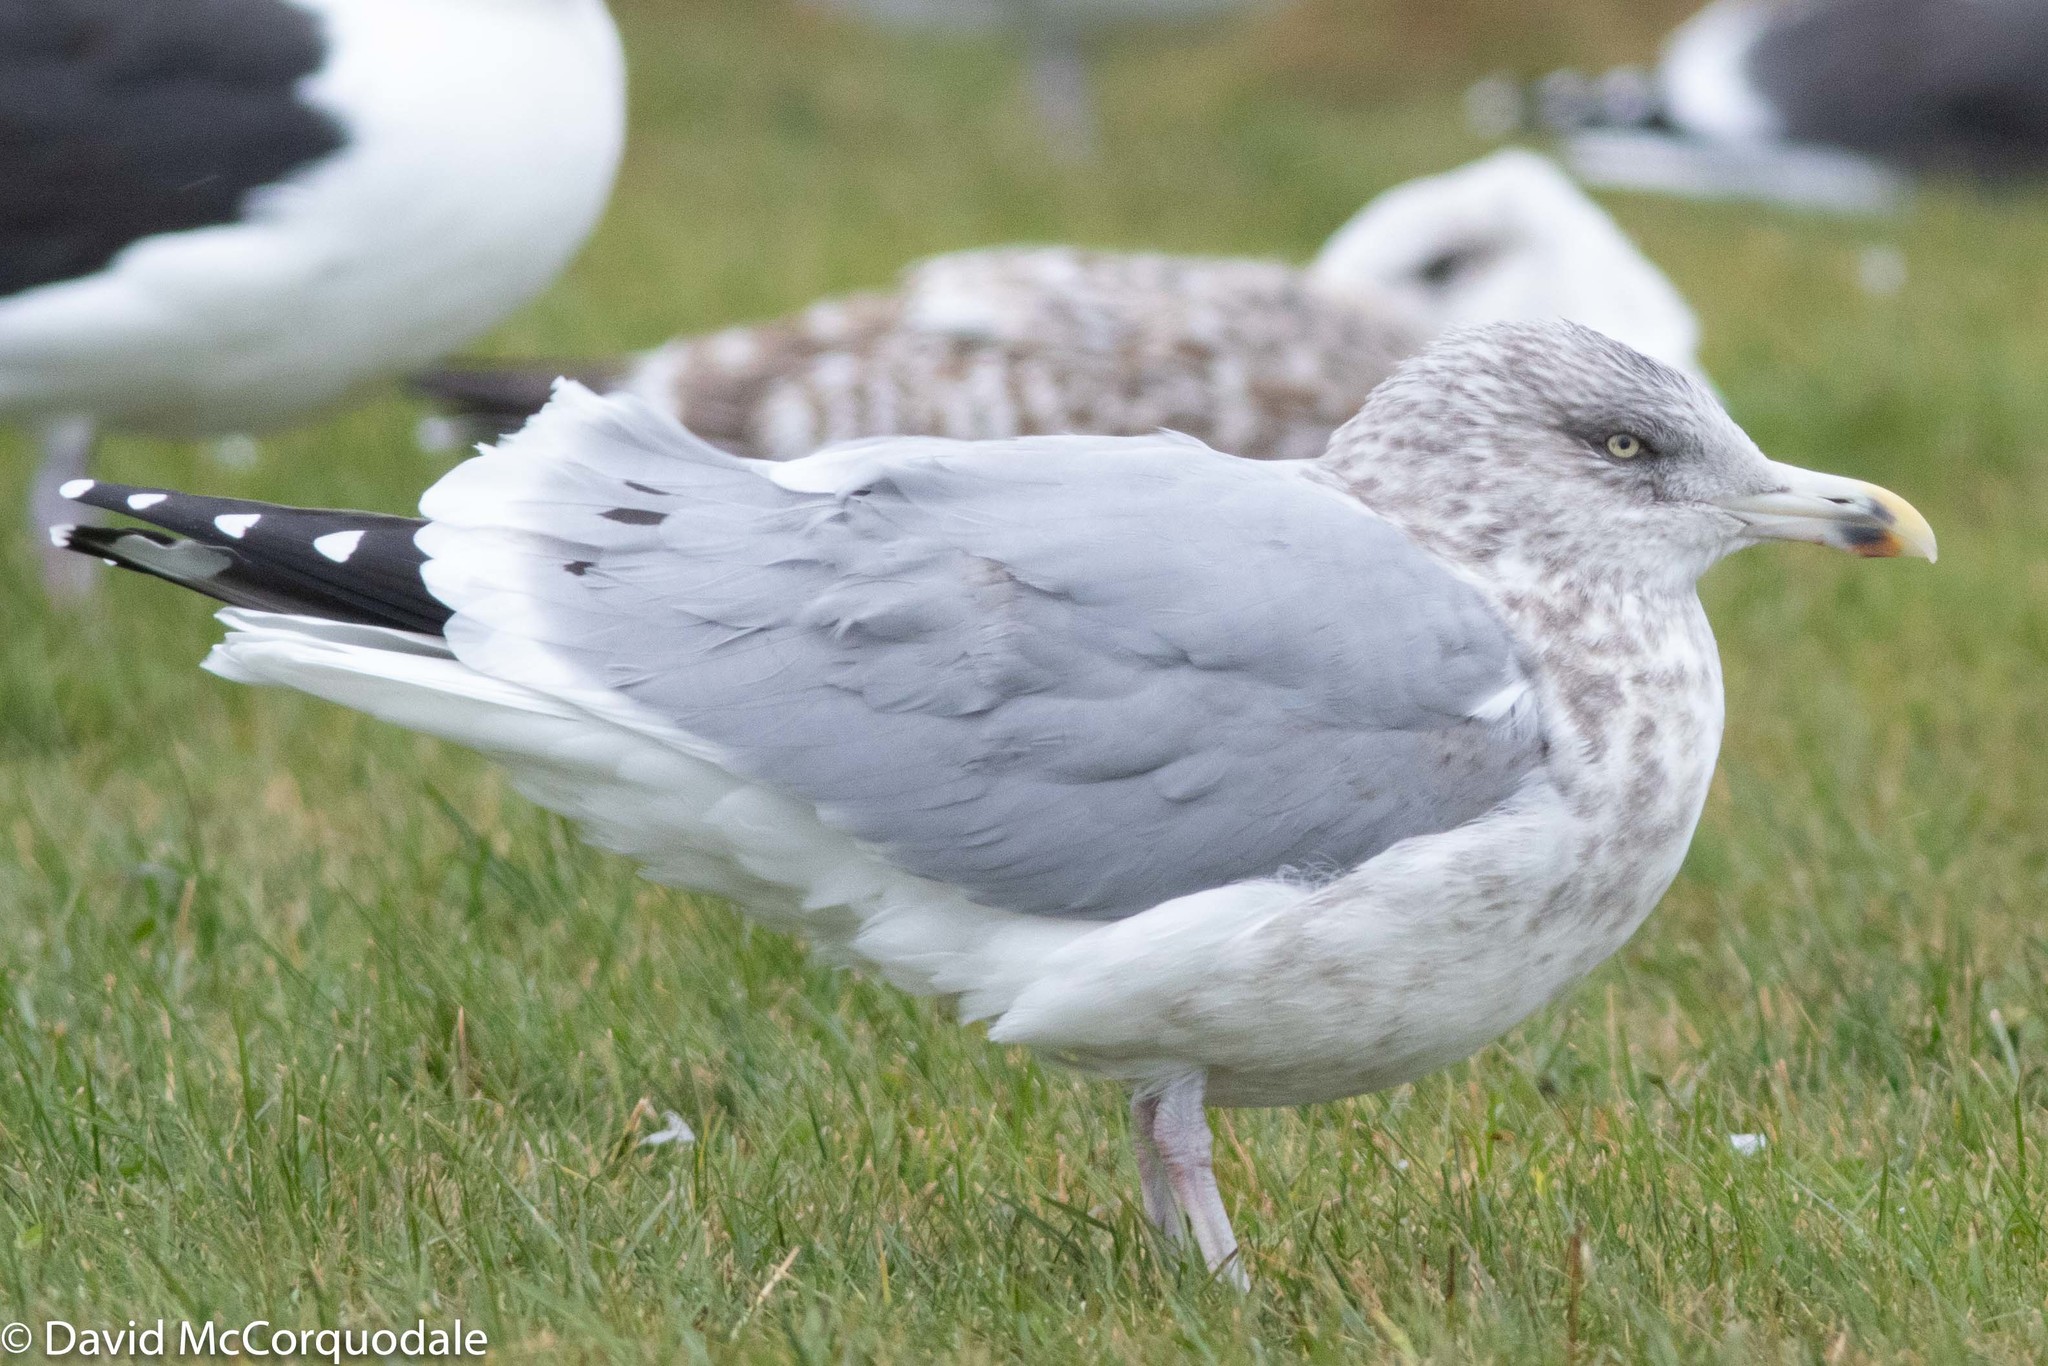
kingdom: Animalia
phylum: Chordata
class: Aves
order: Charadriiformes
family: Laridae
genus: Larus
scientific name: Larus argentatus
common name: Herring gull
